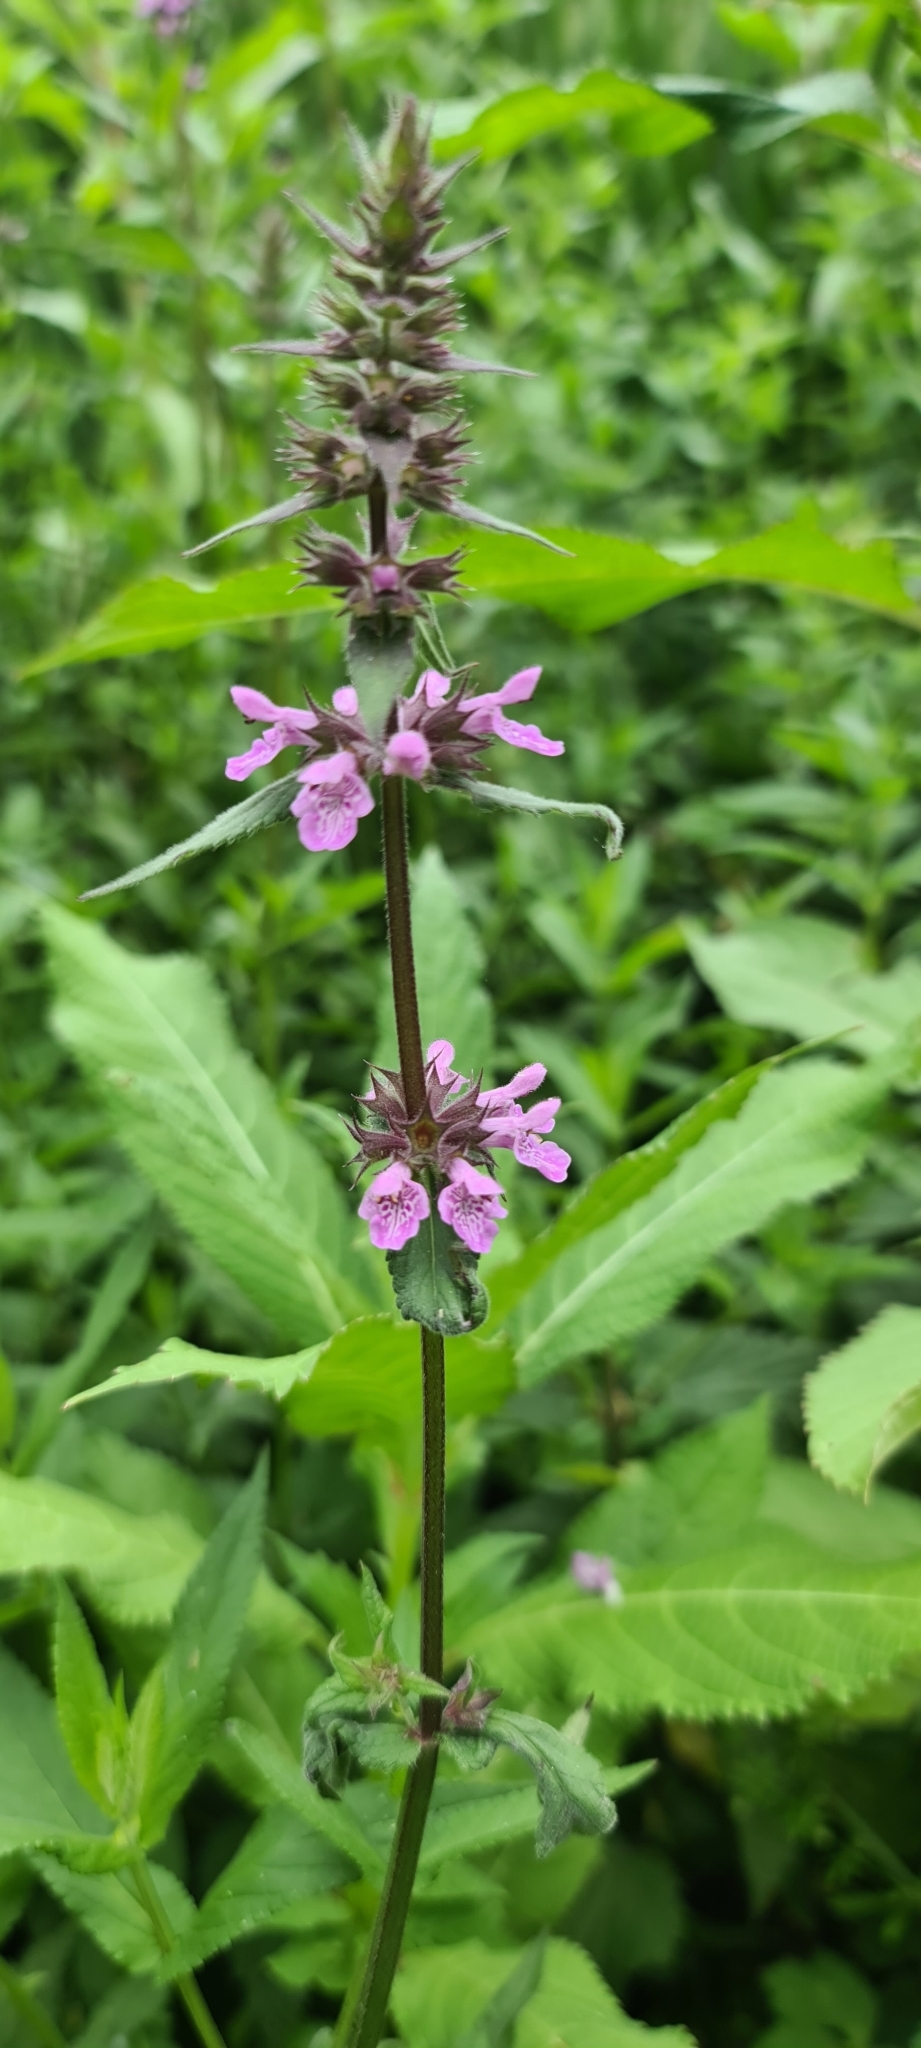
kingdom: Plantae
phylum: Tracheophyta
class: Magnoliopsida
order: Lamiales
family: Lamiaceae
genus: Stachys
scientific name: Stachys palustris
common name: Marsh woundwort
